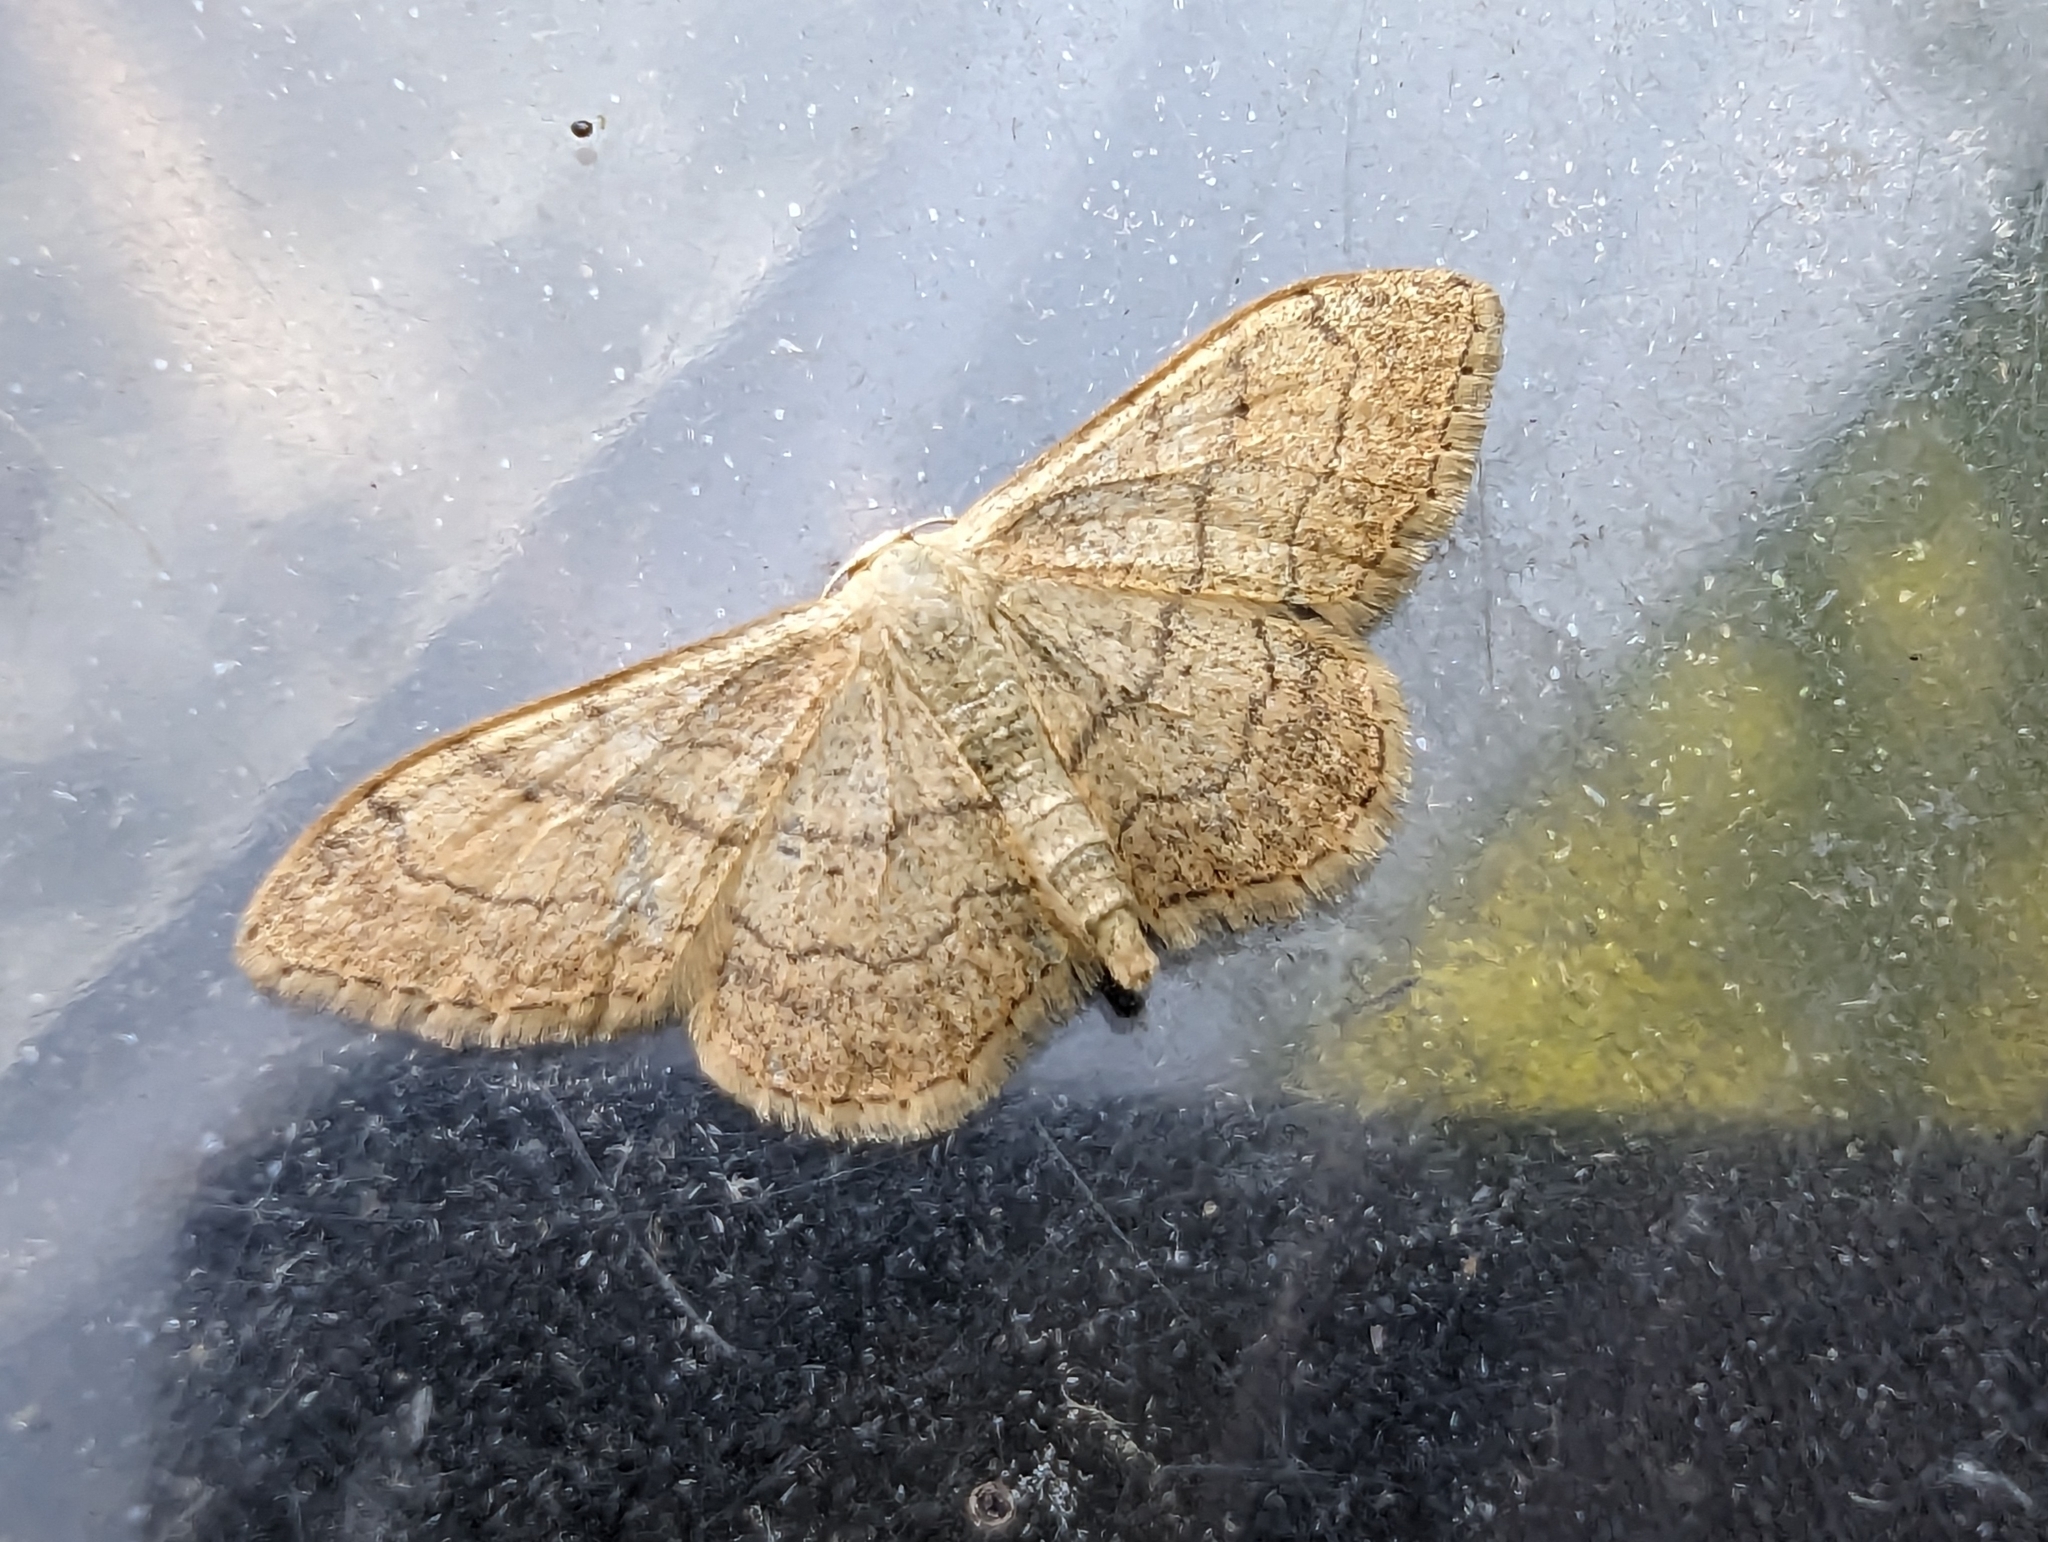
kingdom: Animalia
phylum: Arthropoda
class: Insecta
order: Lepidoptera
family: Geometridae
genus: Idaea
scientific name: Idaea aversata
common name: Riband wave
